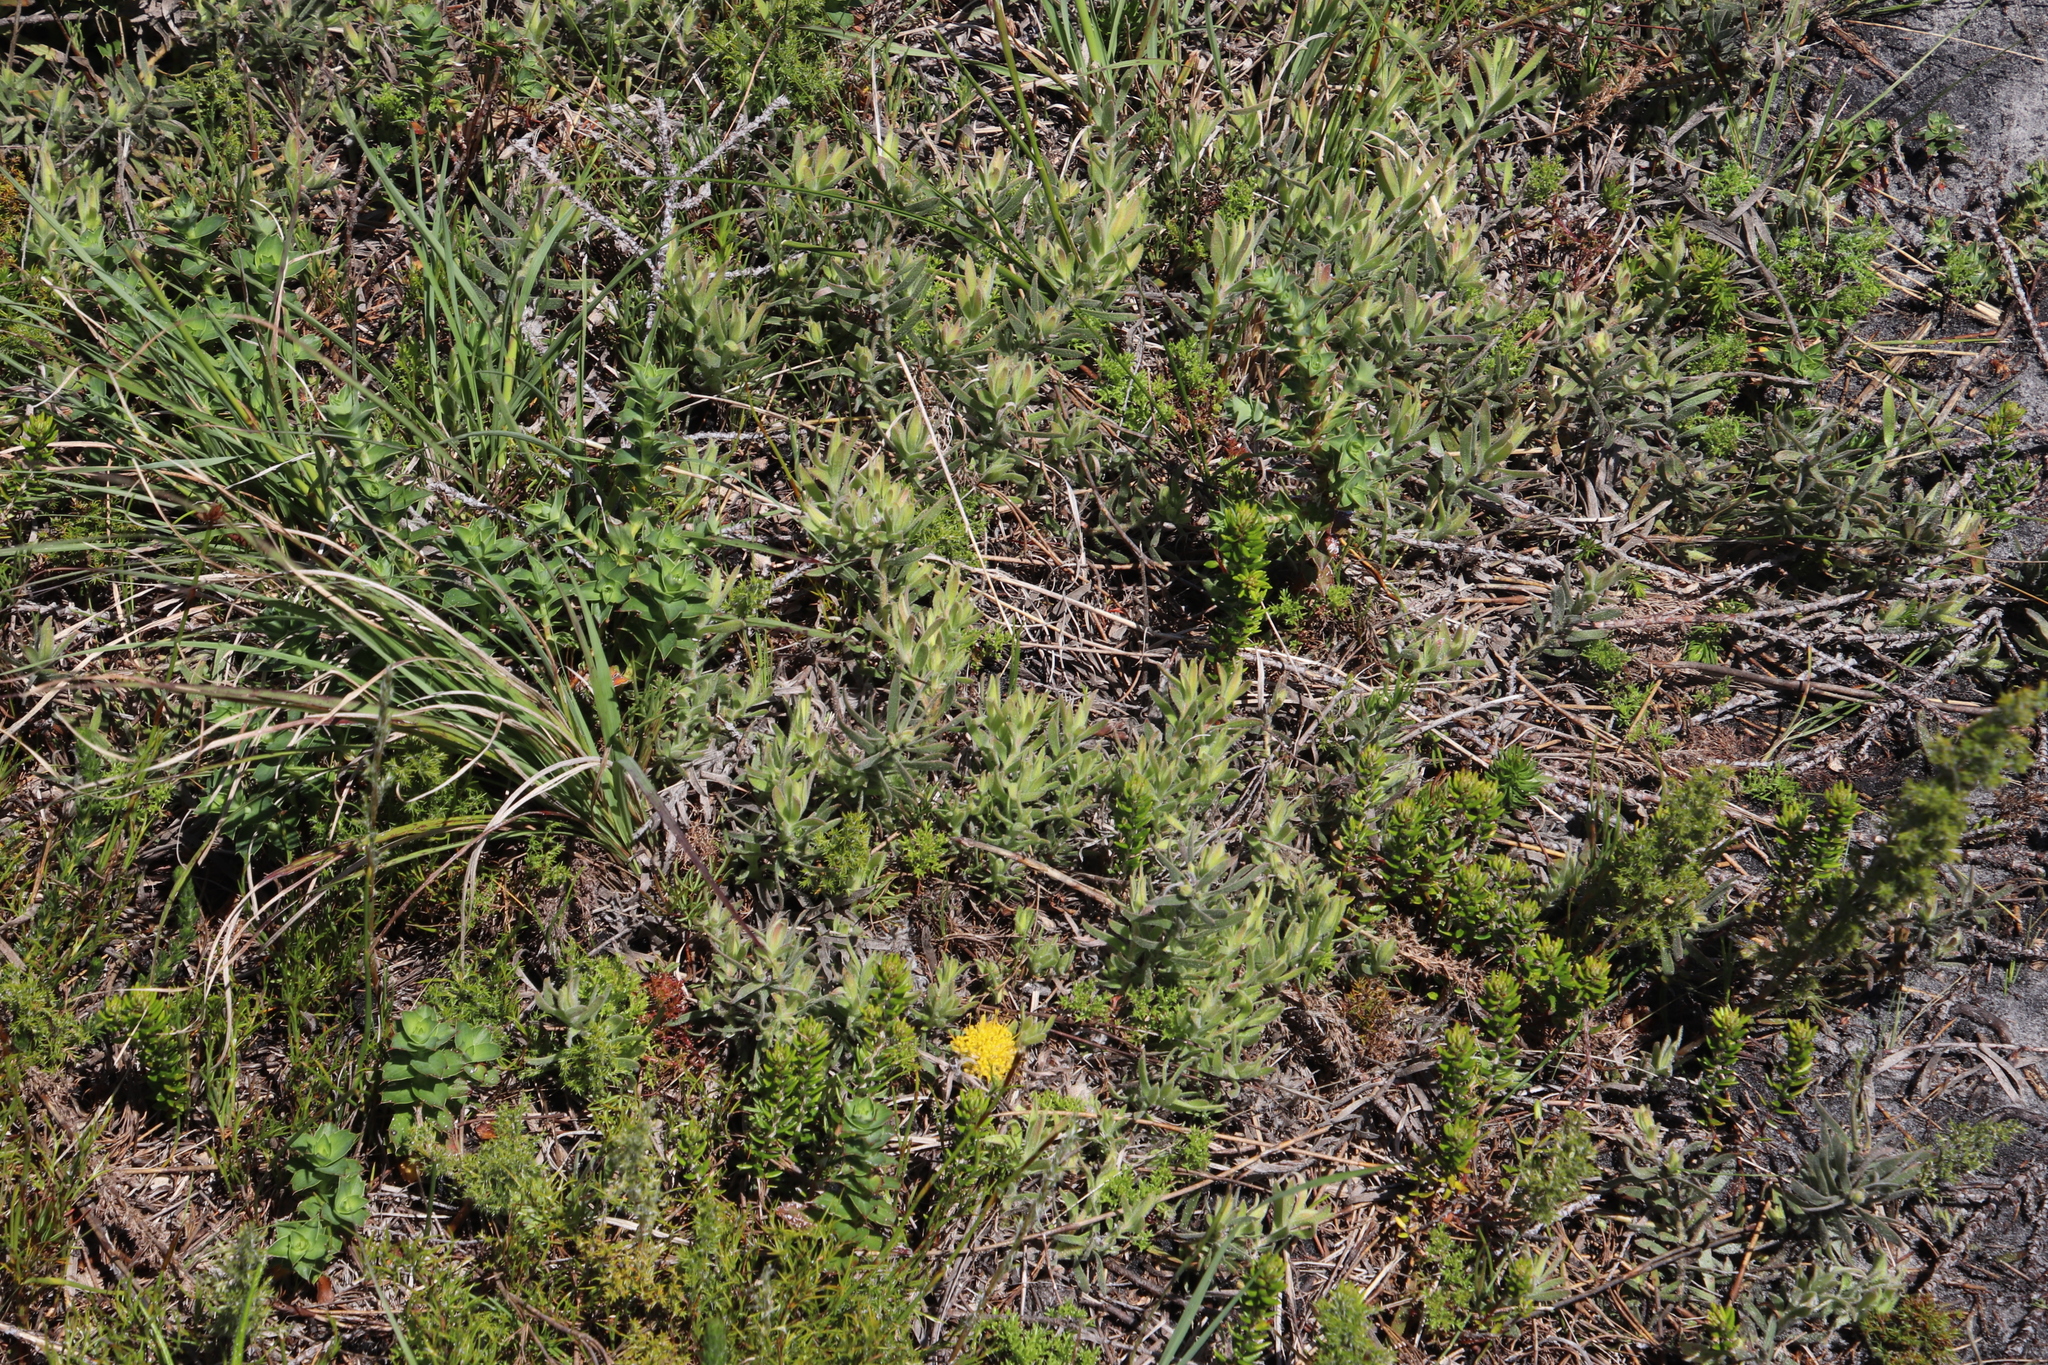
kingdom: Plantae
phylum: Tracheophyta
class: Magnoliopsida
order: Proteales
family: Proteaceae
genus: Leucospermum
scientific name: Leucospermum prostratum
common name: Yellow-trailing pincushion
